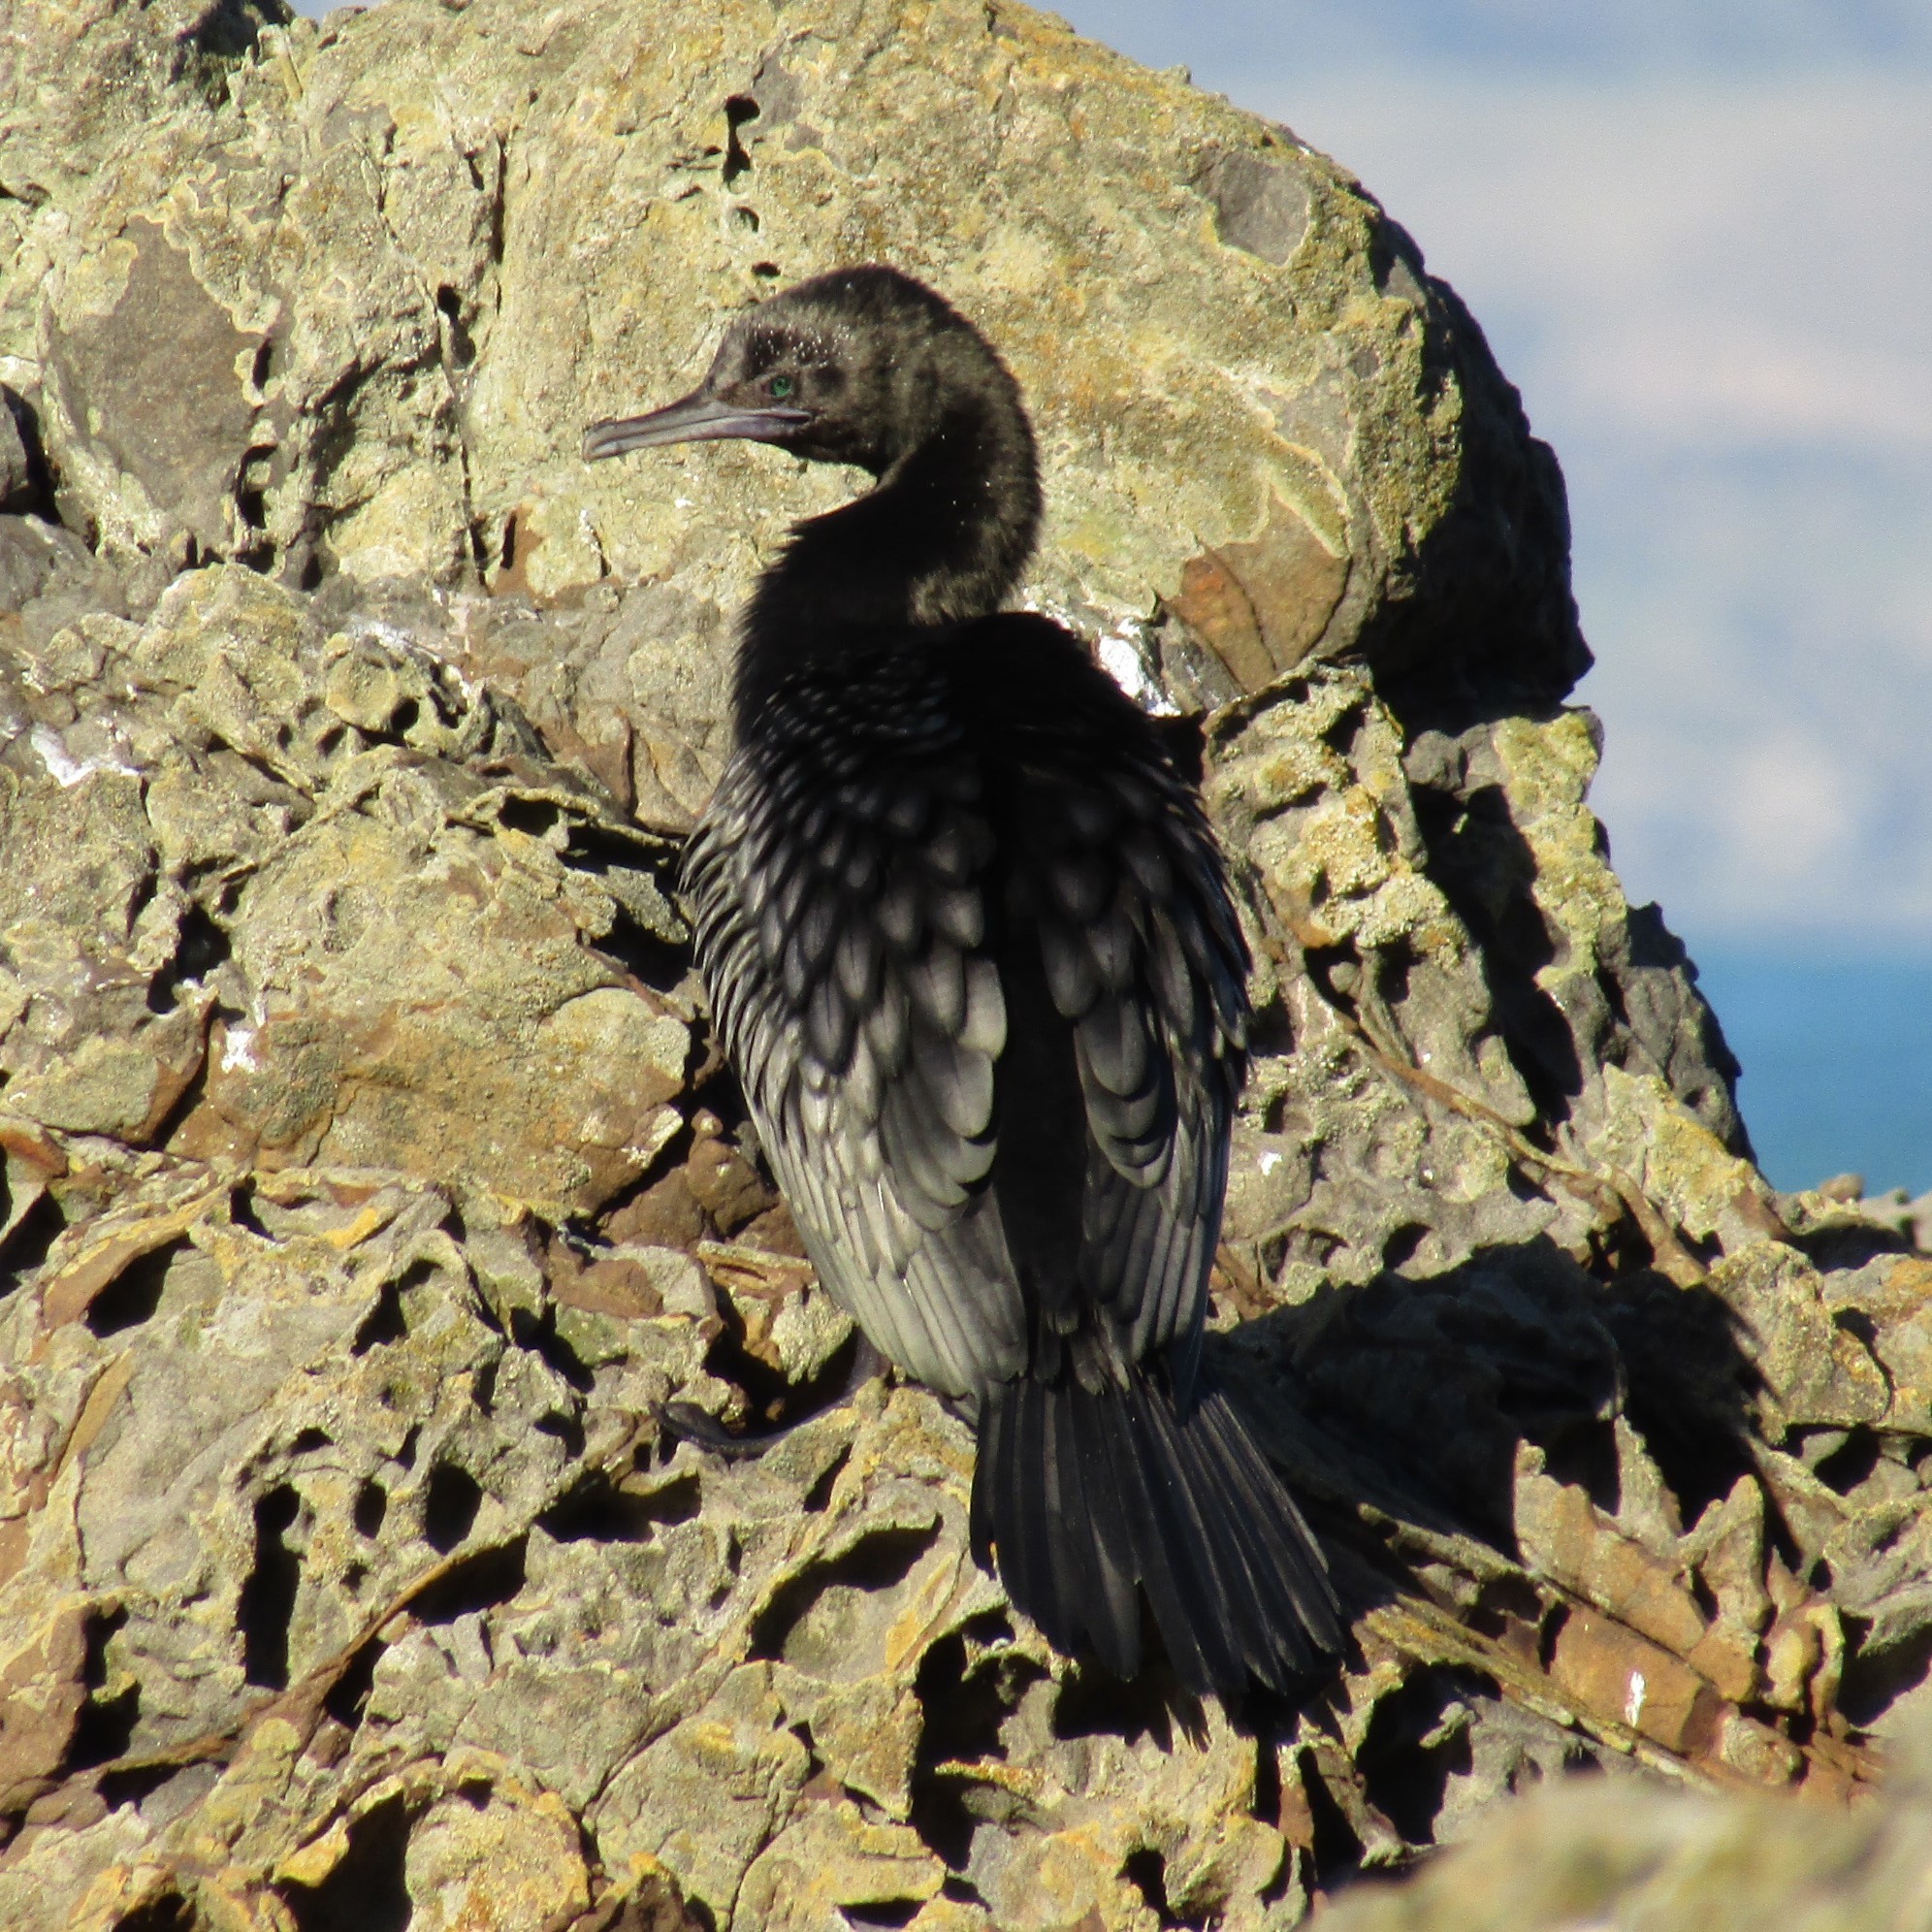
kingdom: Animalia
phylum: Chordata
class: Aves
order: Suliformes
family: Phalacrocoracidae
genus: Phalacrocorax
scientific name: Phalacrocorax sulcirostris
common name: Little black cormorant
